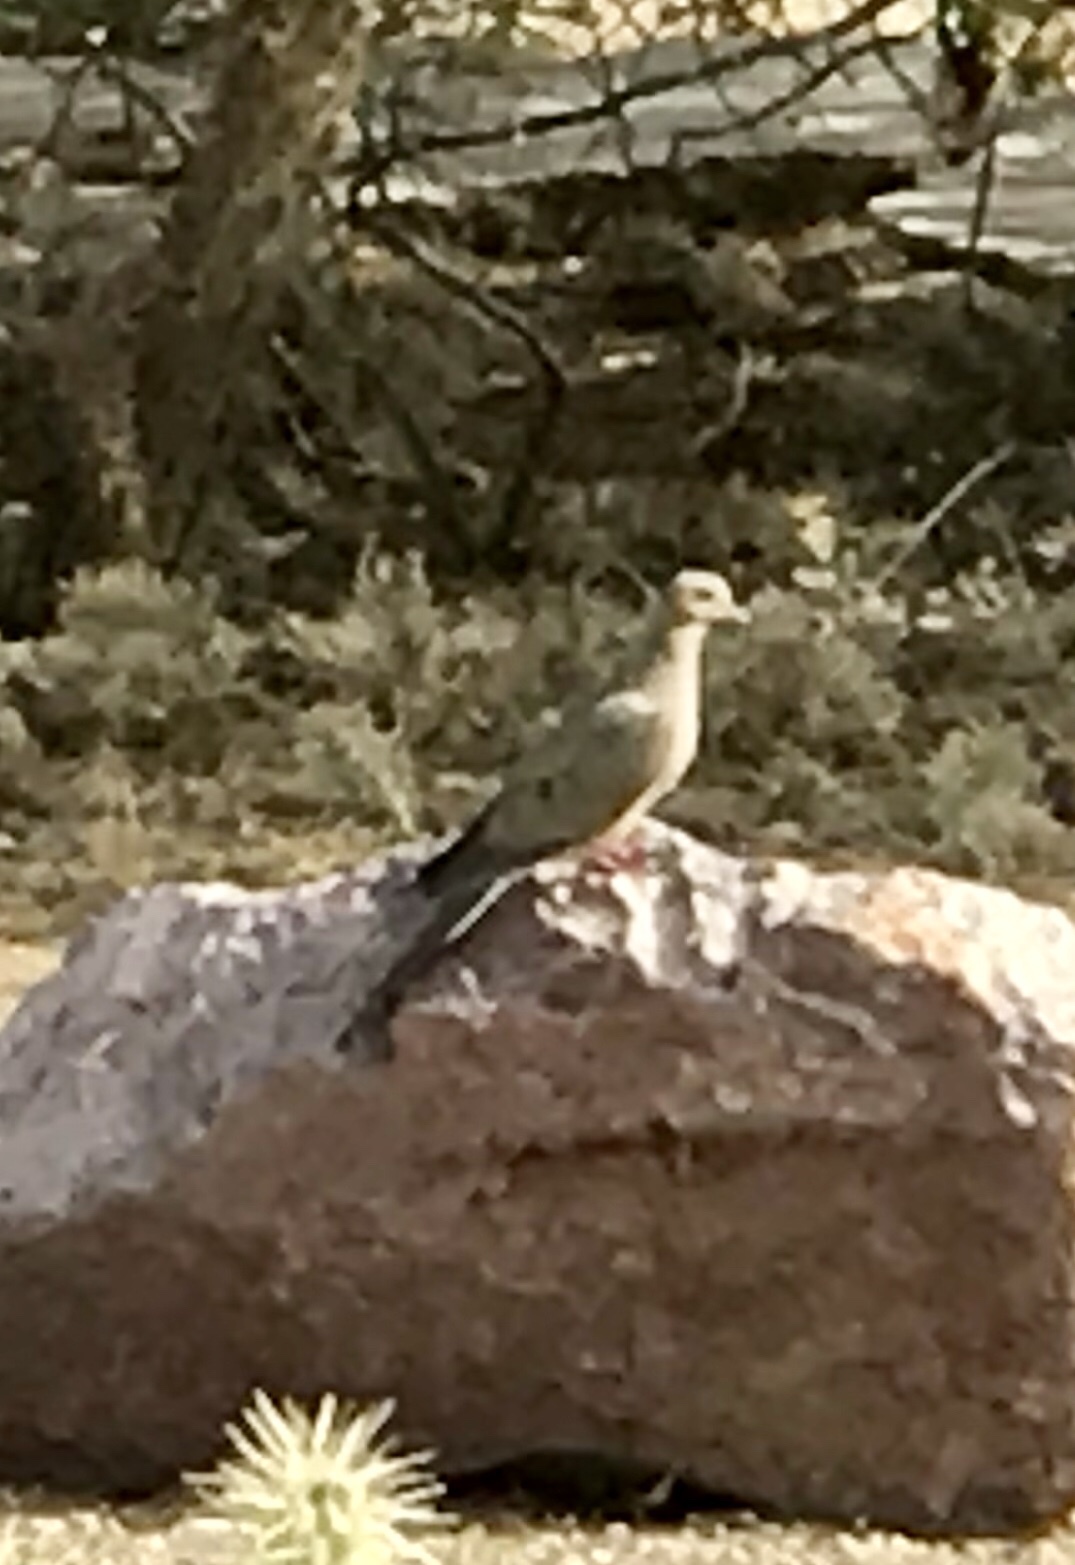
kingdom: Animalia
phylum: Chordata
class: Aves
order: Columbiformes
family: Columbidae
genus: Zenaida
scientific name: Zenaida macroura
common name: Mourning dove
